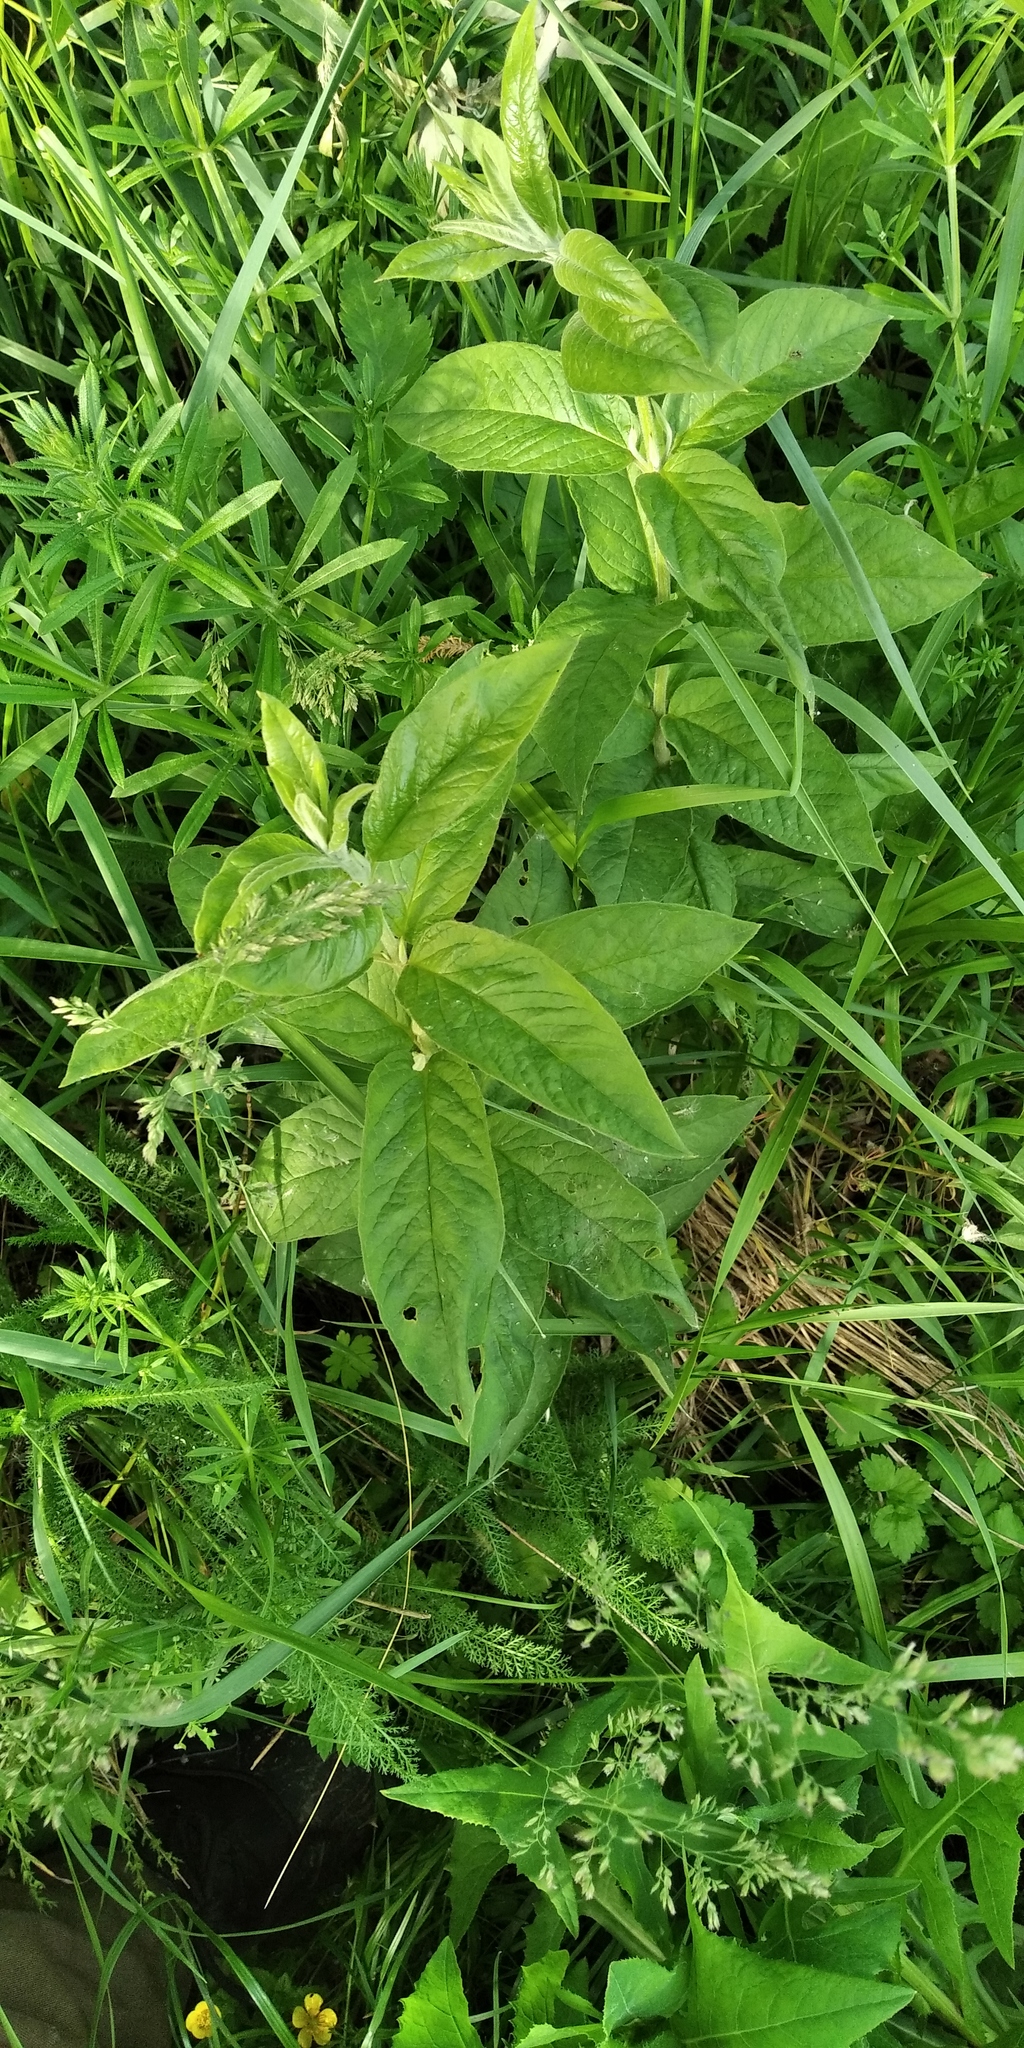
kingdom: Plantae
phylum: Tracheophyta
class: Magnoliopsida
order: Ericales
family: Primulaceae
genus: Lysimachia
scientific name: Lysimachia vulgaris
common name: Yellow loosestrife
